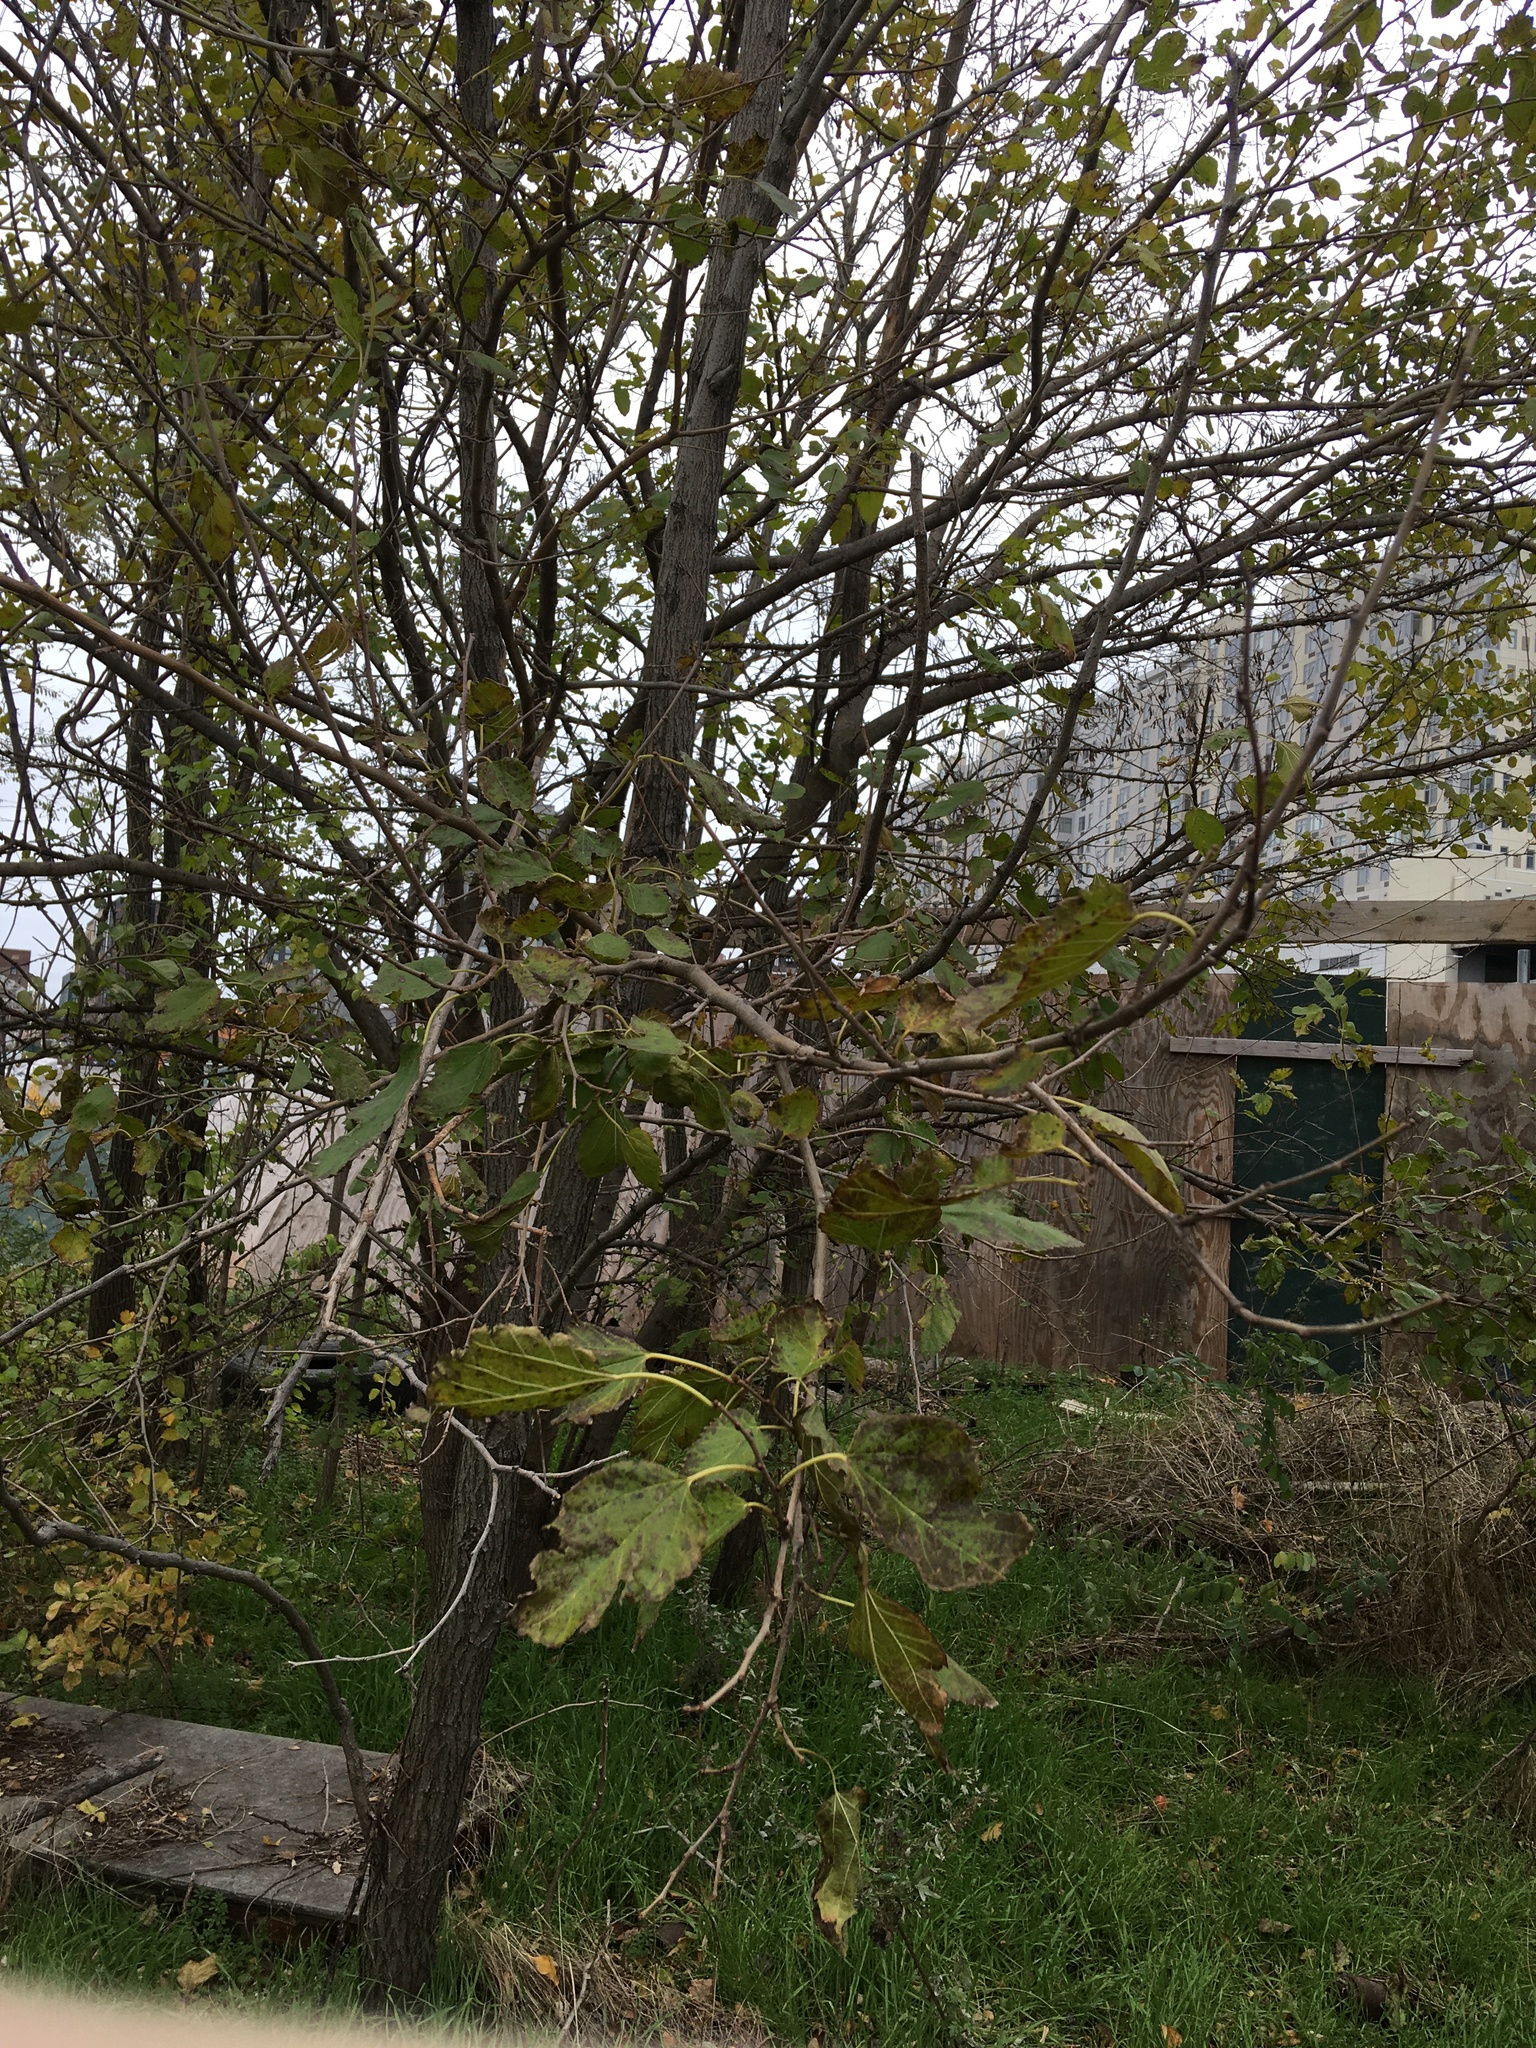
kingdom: Plantae
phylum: Tracheophyta
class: Magnoliopsida
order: Rosales
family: Moraceae
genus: Morus
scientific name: Morus alba
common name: White mulberry
